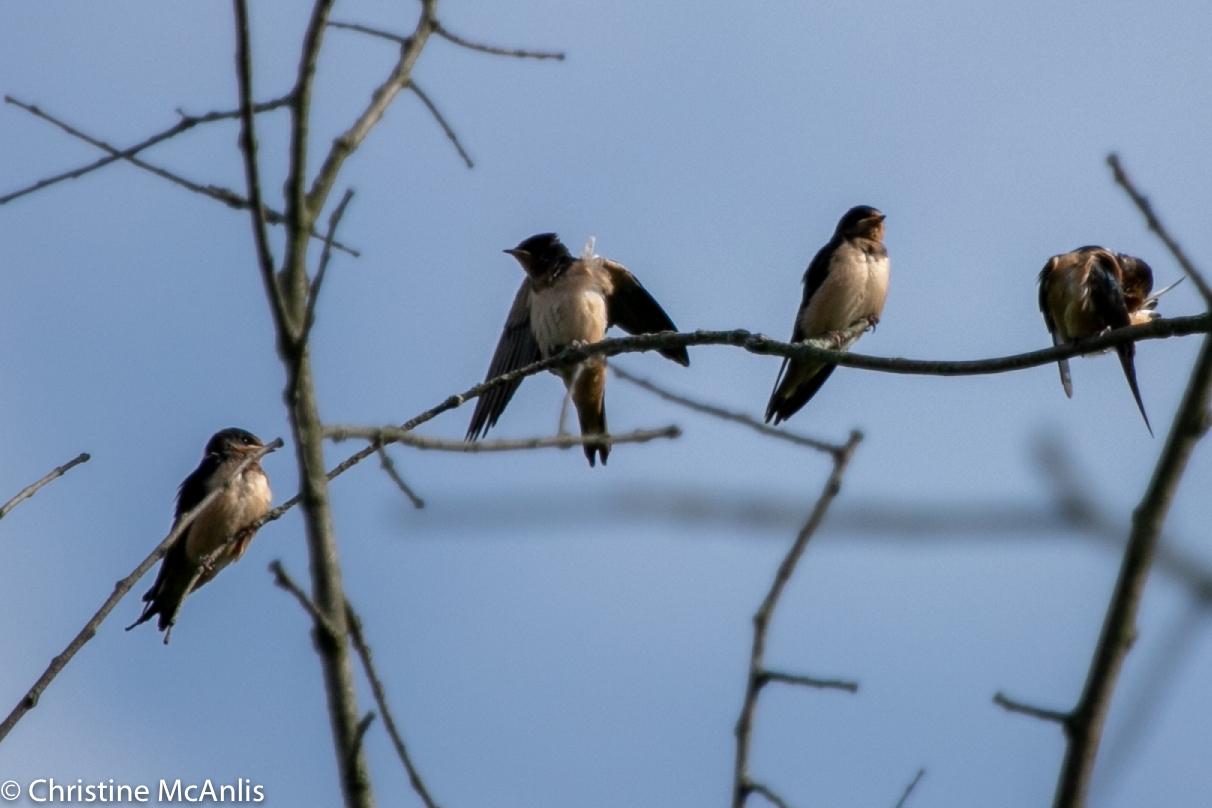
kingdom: Animalia
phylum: Chordata
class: Aves
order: Passeriformes
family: Hirundinidae
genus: Hirundo
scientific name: Hirundo rustica
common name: Barn swallow
